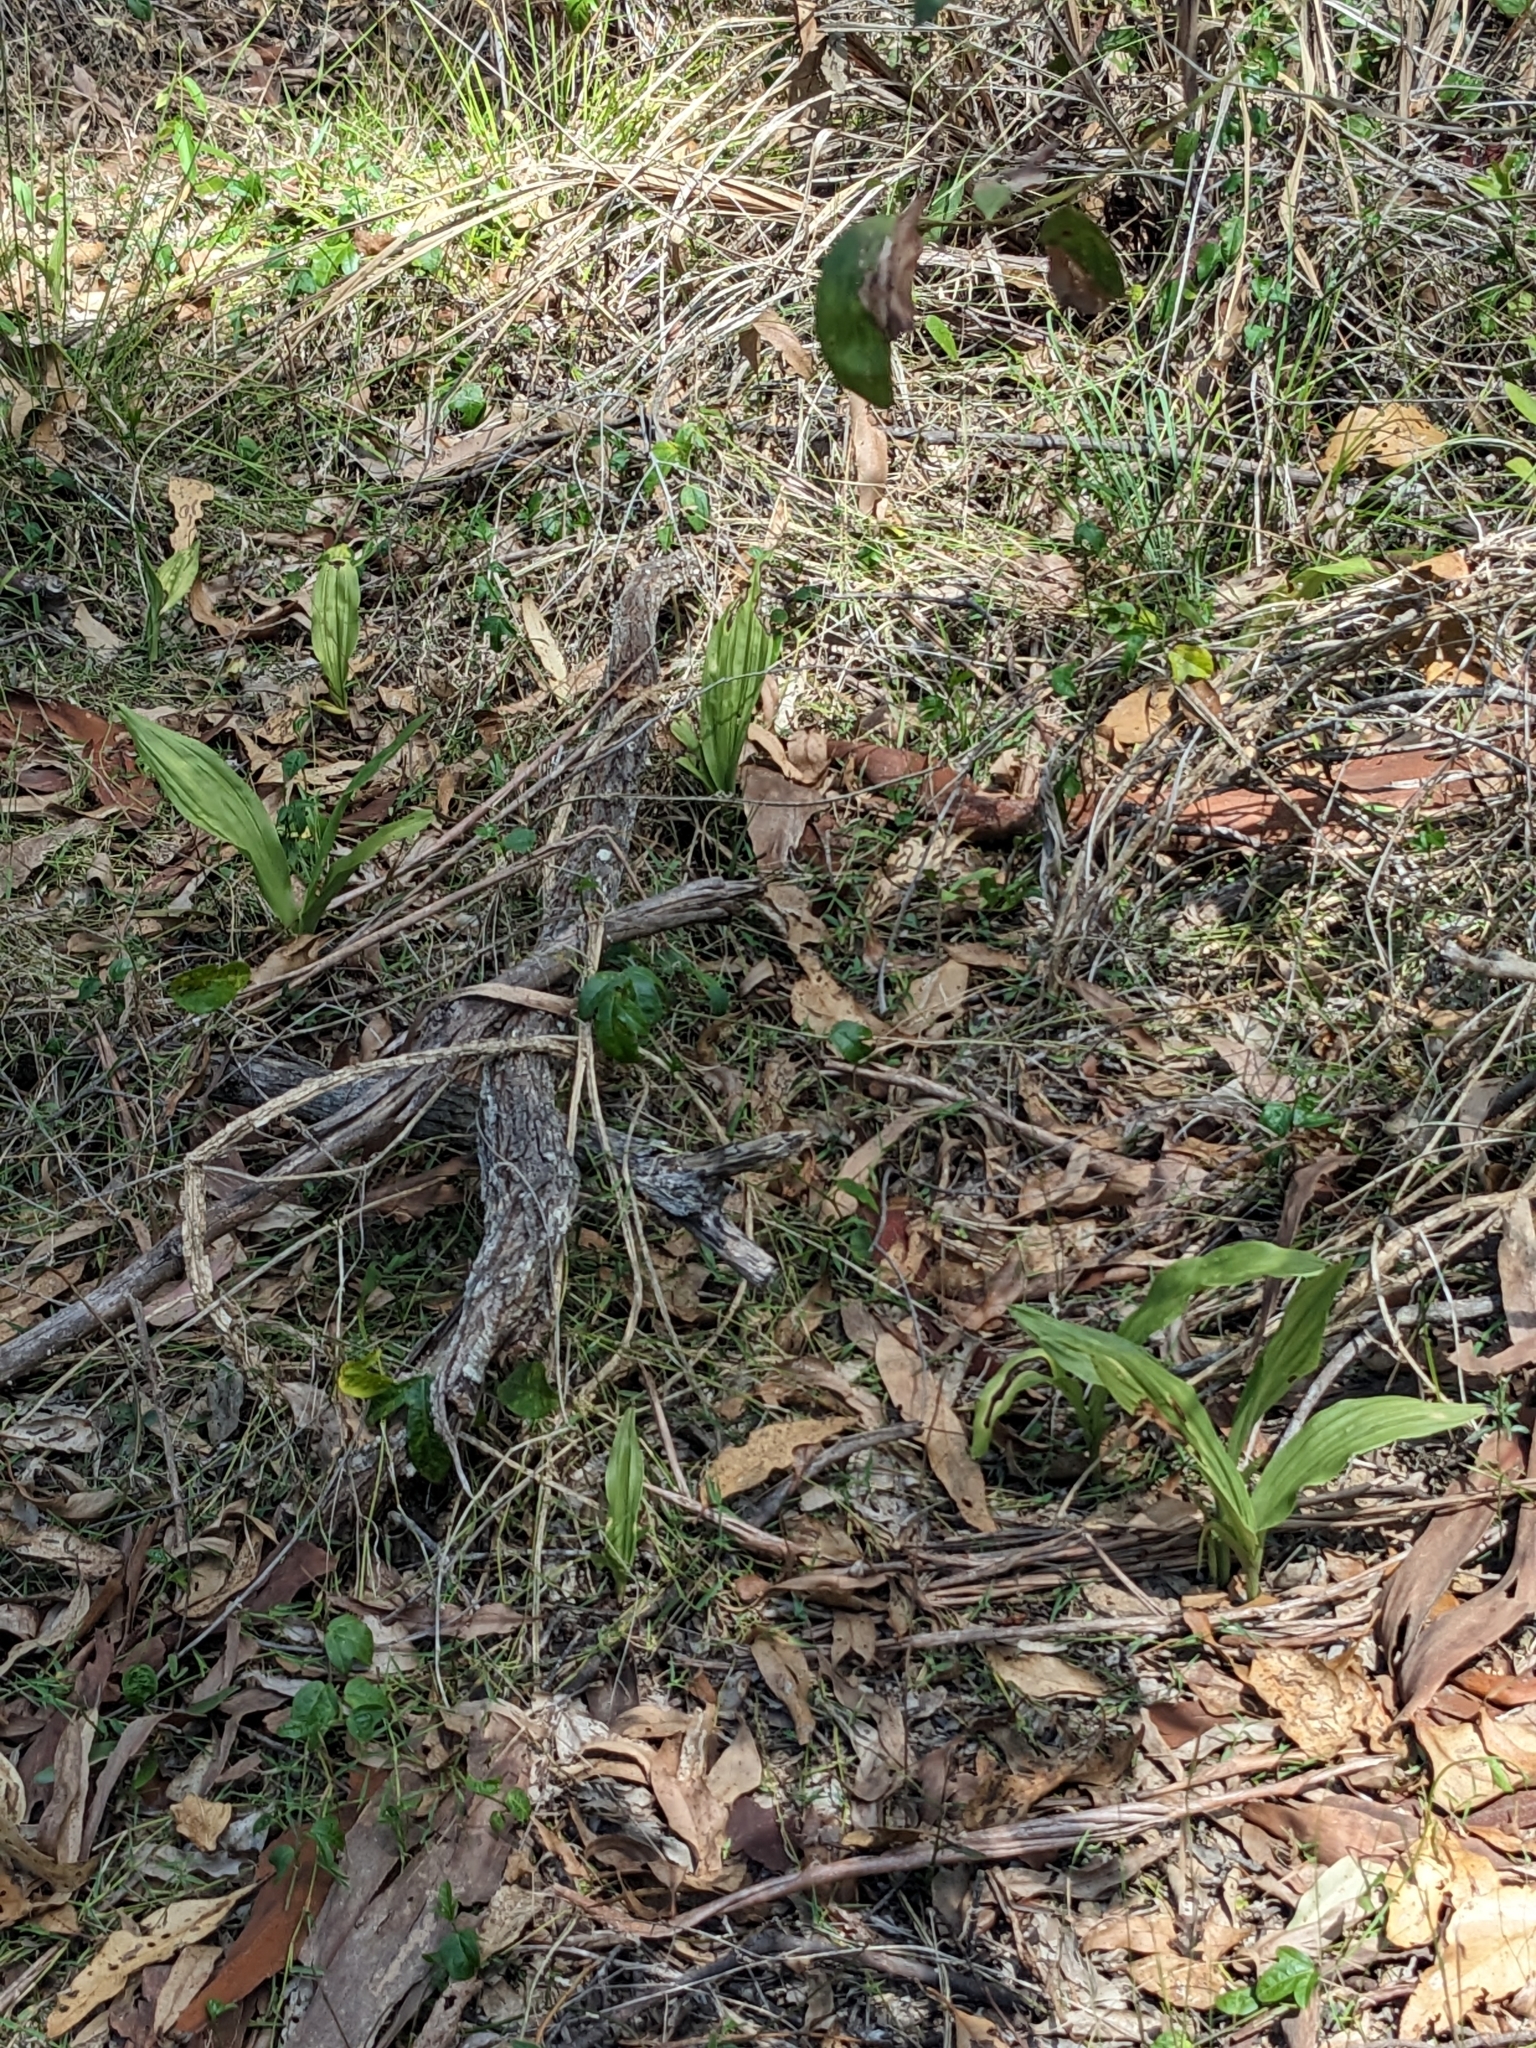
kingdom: Plantae
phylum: Tracheophyta
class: Liliopsida
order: Asparagales
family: Orchidaceae
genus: Eulophia
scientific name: Eulophia cernua
